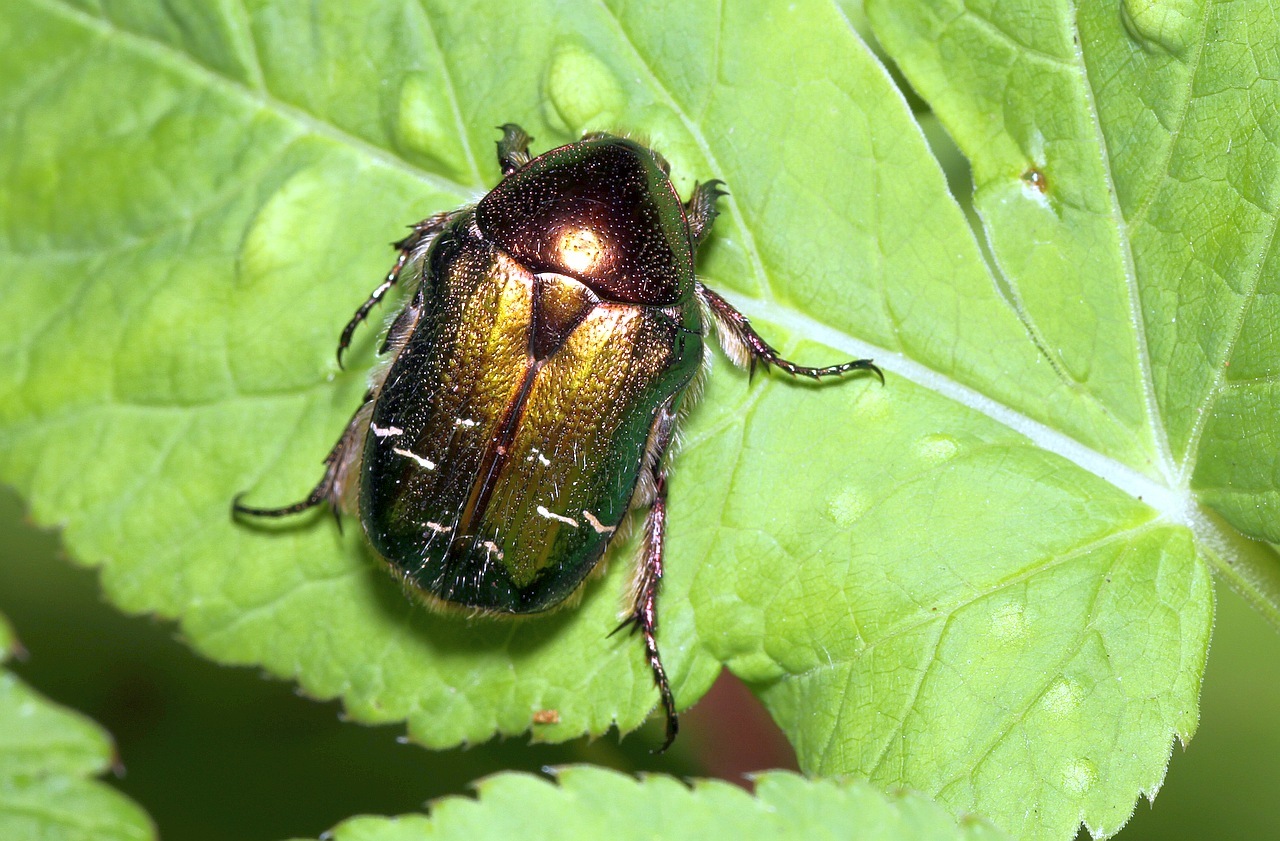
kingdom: Animalia
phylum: Arthropoda
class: Insecta
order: Coleoptera
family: Scarabaeidae
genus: Cetonia
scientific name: Cetonia aurata
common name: Rose chafer
